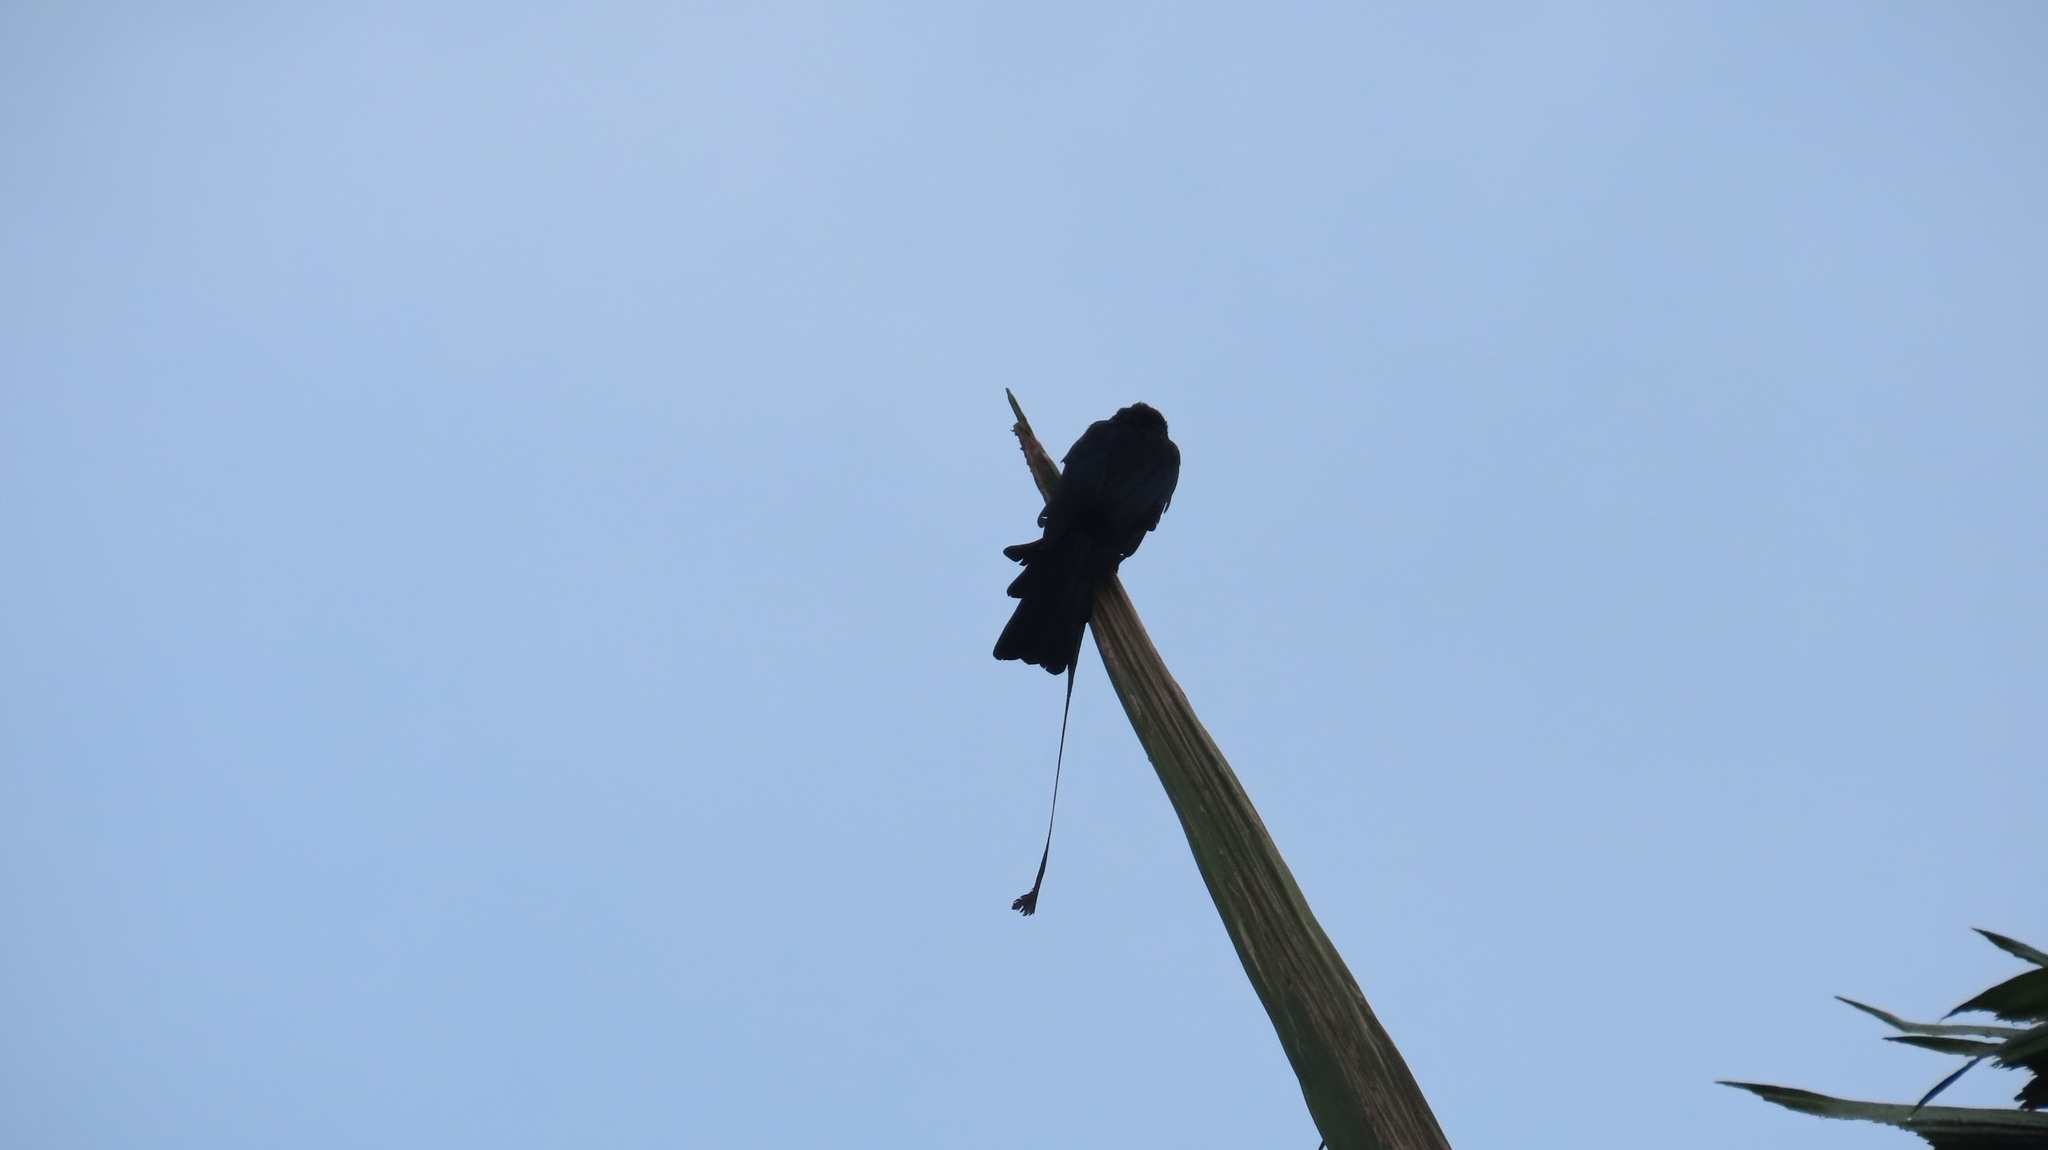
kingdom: Animalia
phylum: Chordata
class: Aves
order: Passeriformes
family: Dicruridae
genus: Dicrurus
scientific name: Dicrurus paradiseus
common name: Greater racket-tailed drongo
